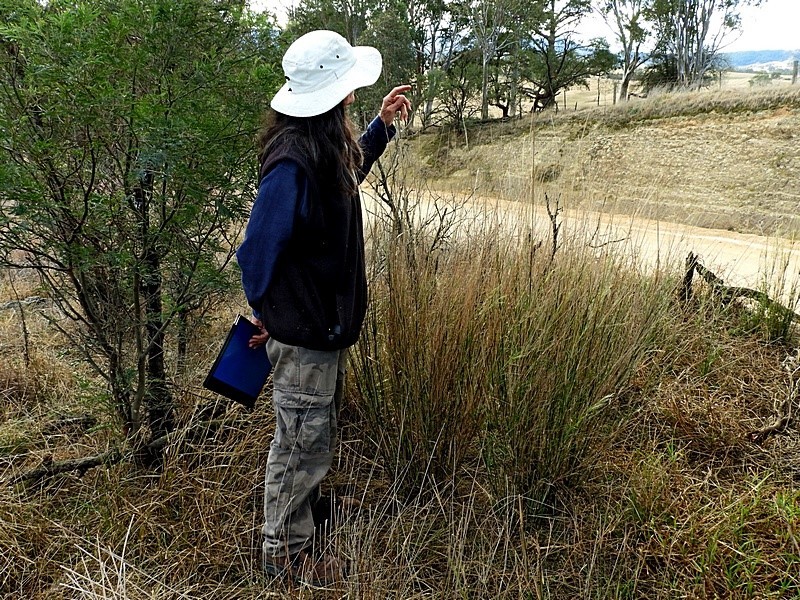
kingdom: Plantae
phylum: Tracheophyta
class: Liliopsida
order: Poales
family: Poaceae
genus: Austrostipa
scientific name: Austrostipa verticillata
